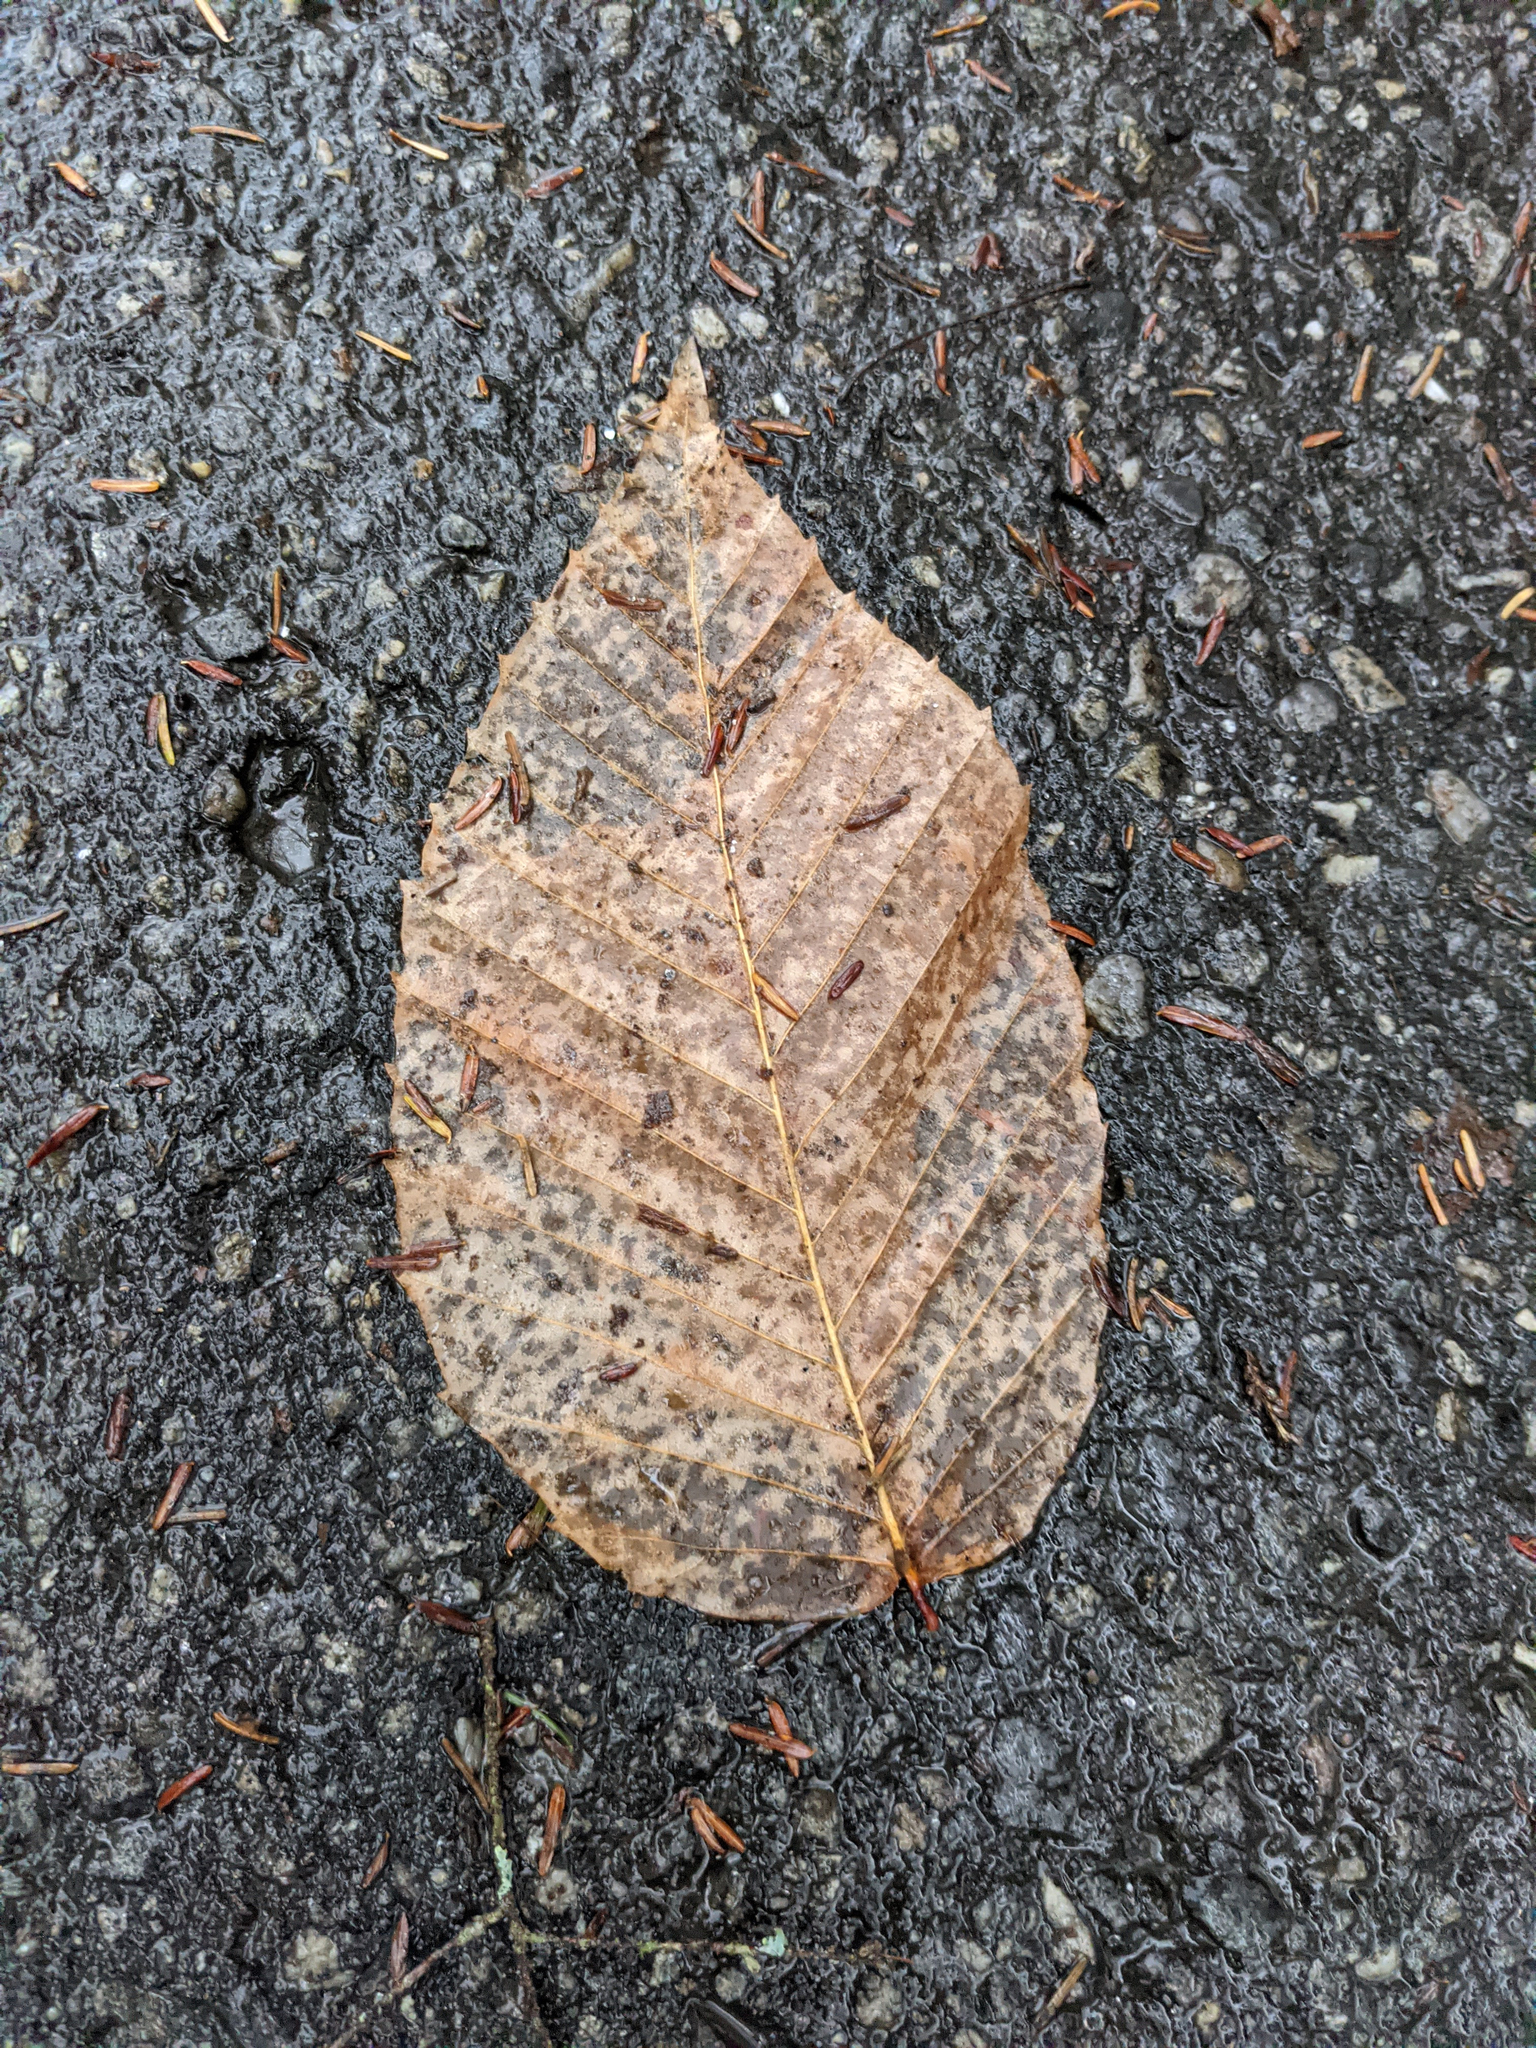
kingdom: Plantae
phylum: Tracheophyta
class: Magnoliopsida
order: Fagales
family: Fagaceae
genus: Fagus
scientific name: Fagus grandifolia
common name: American beech
